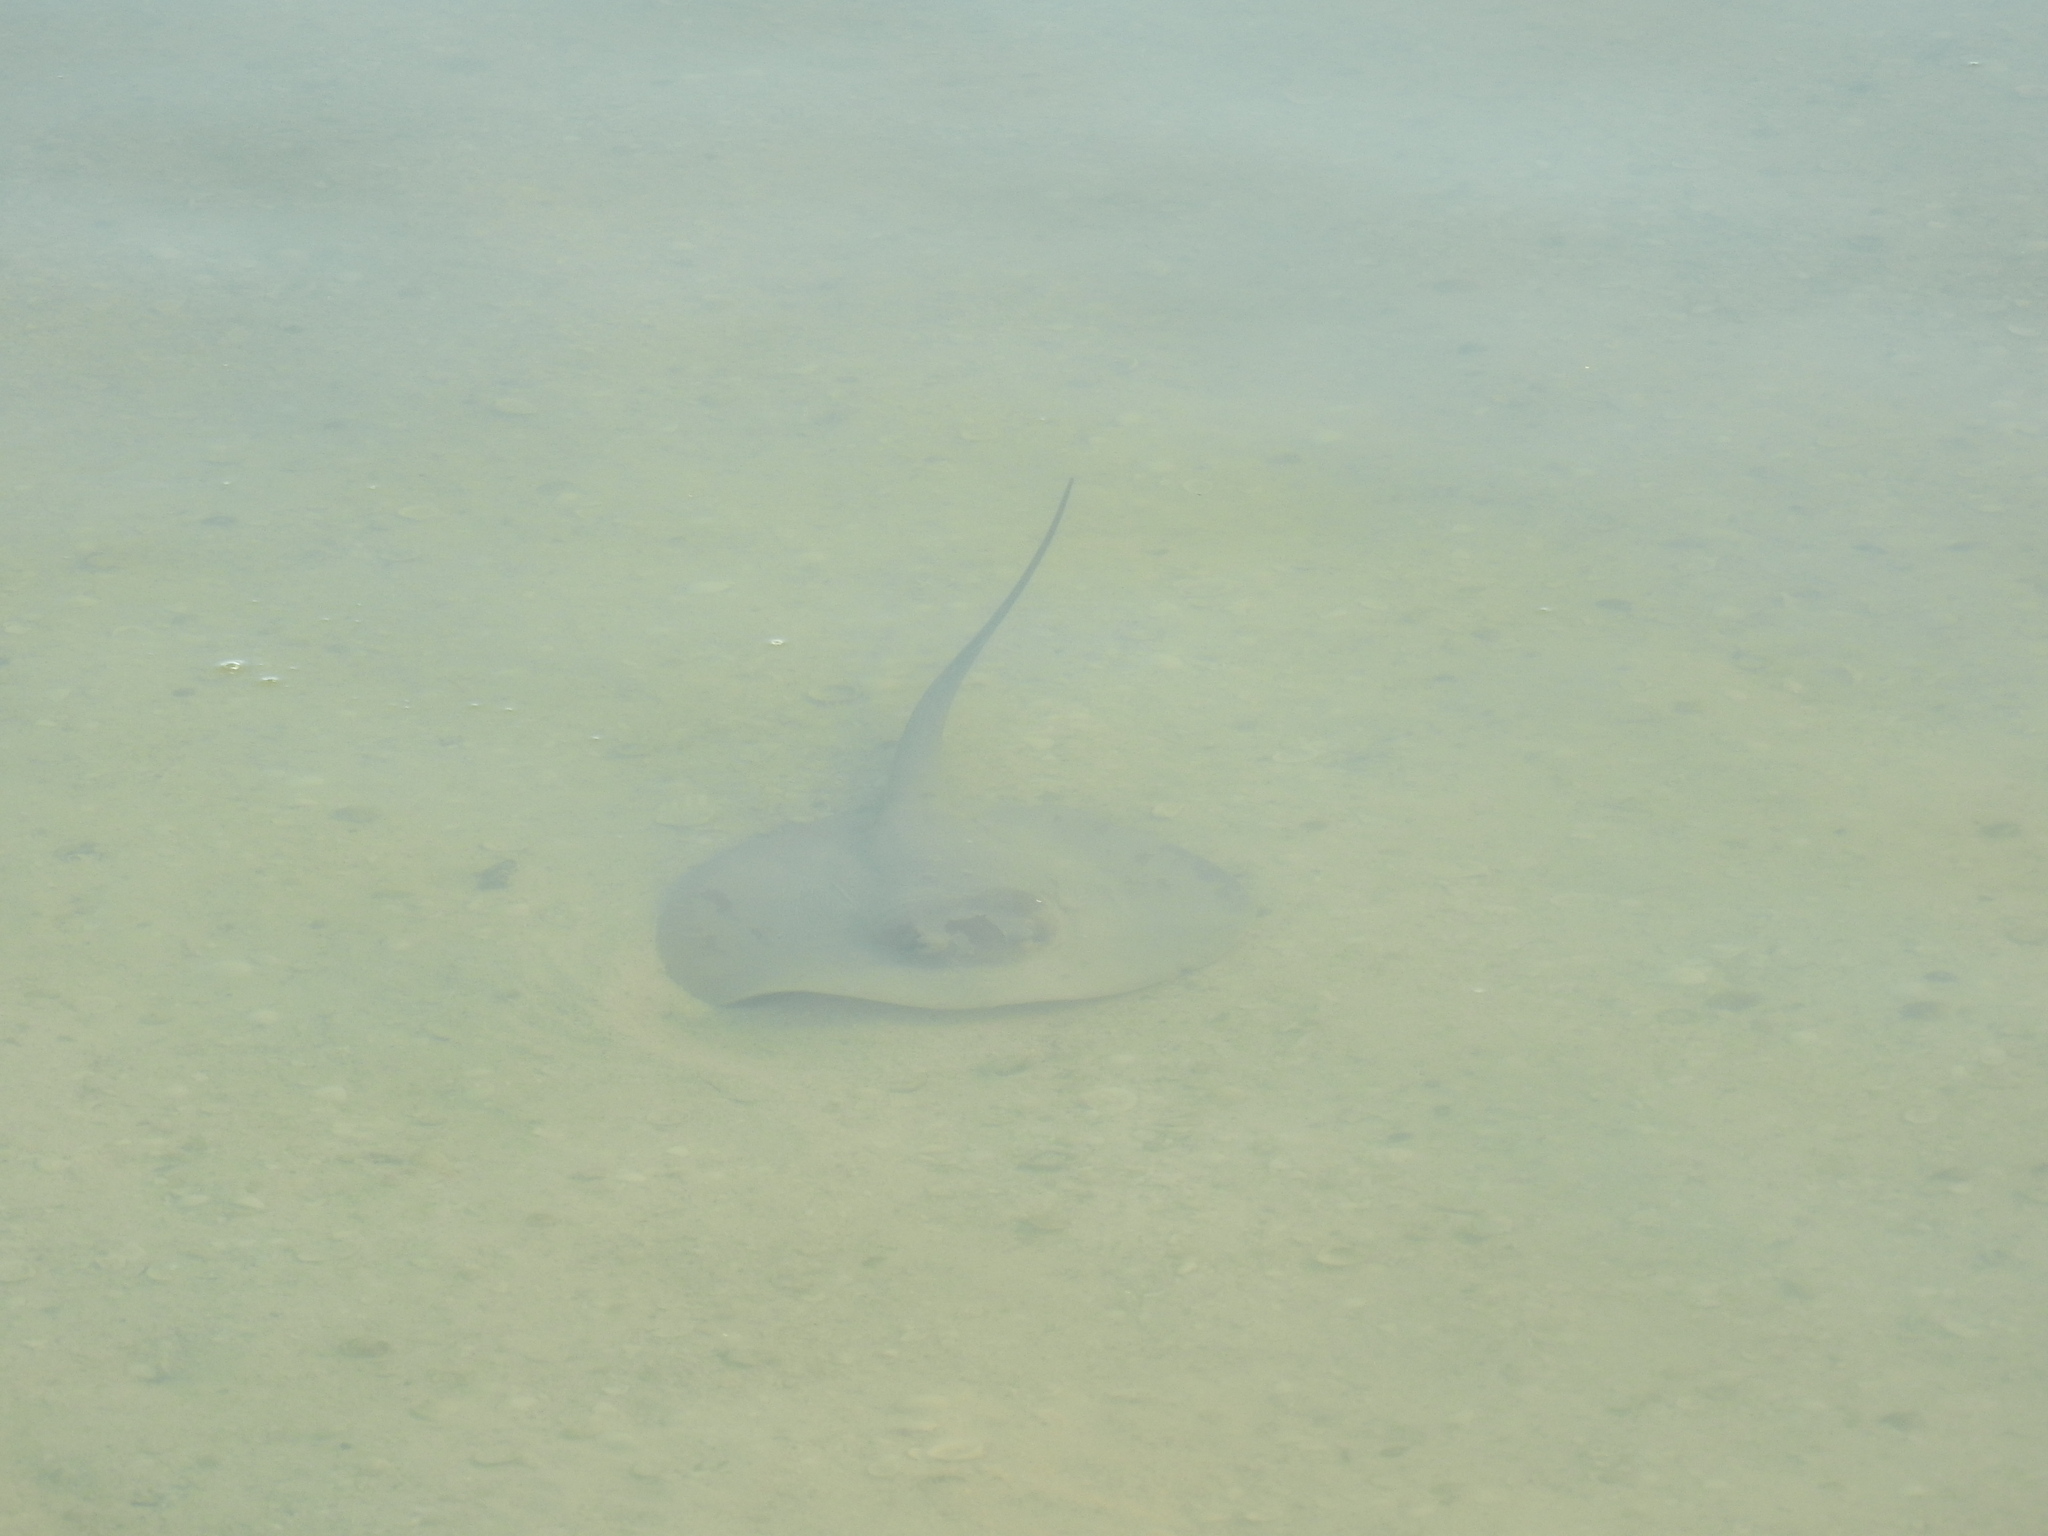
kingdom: Animalia
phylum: Chordata
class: Elasmobranchii
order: Myliobatiformes
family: Potamotrygonidae
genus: Styracura
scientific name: Styracura schmardae
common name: Atlantic chupare
